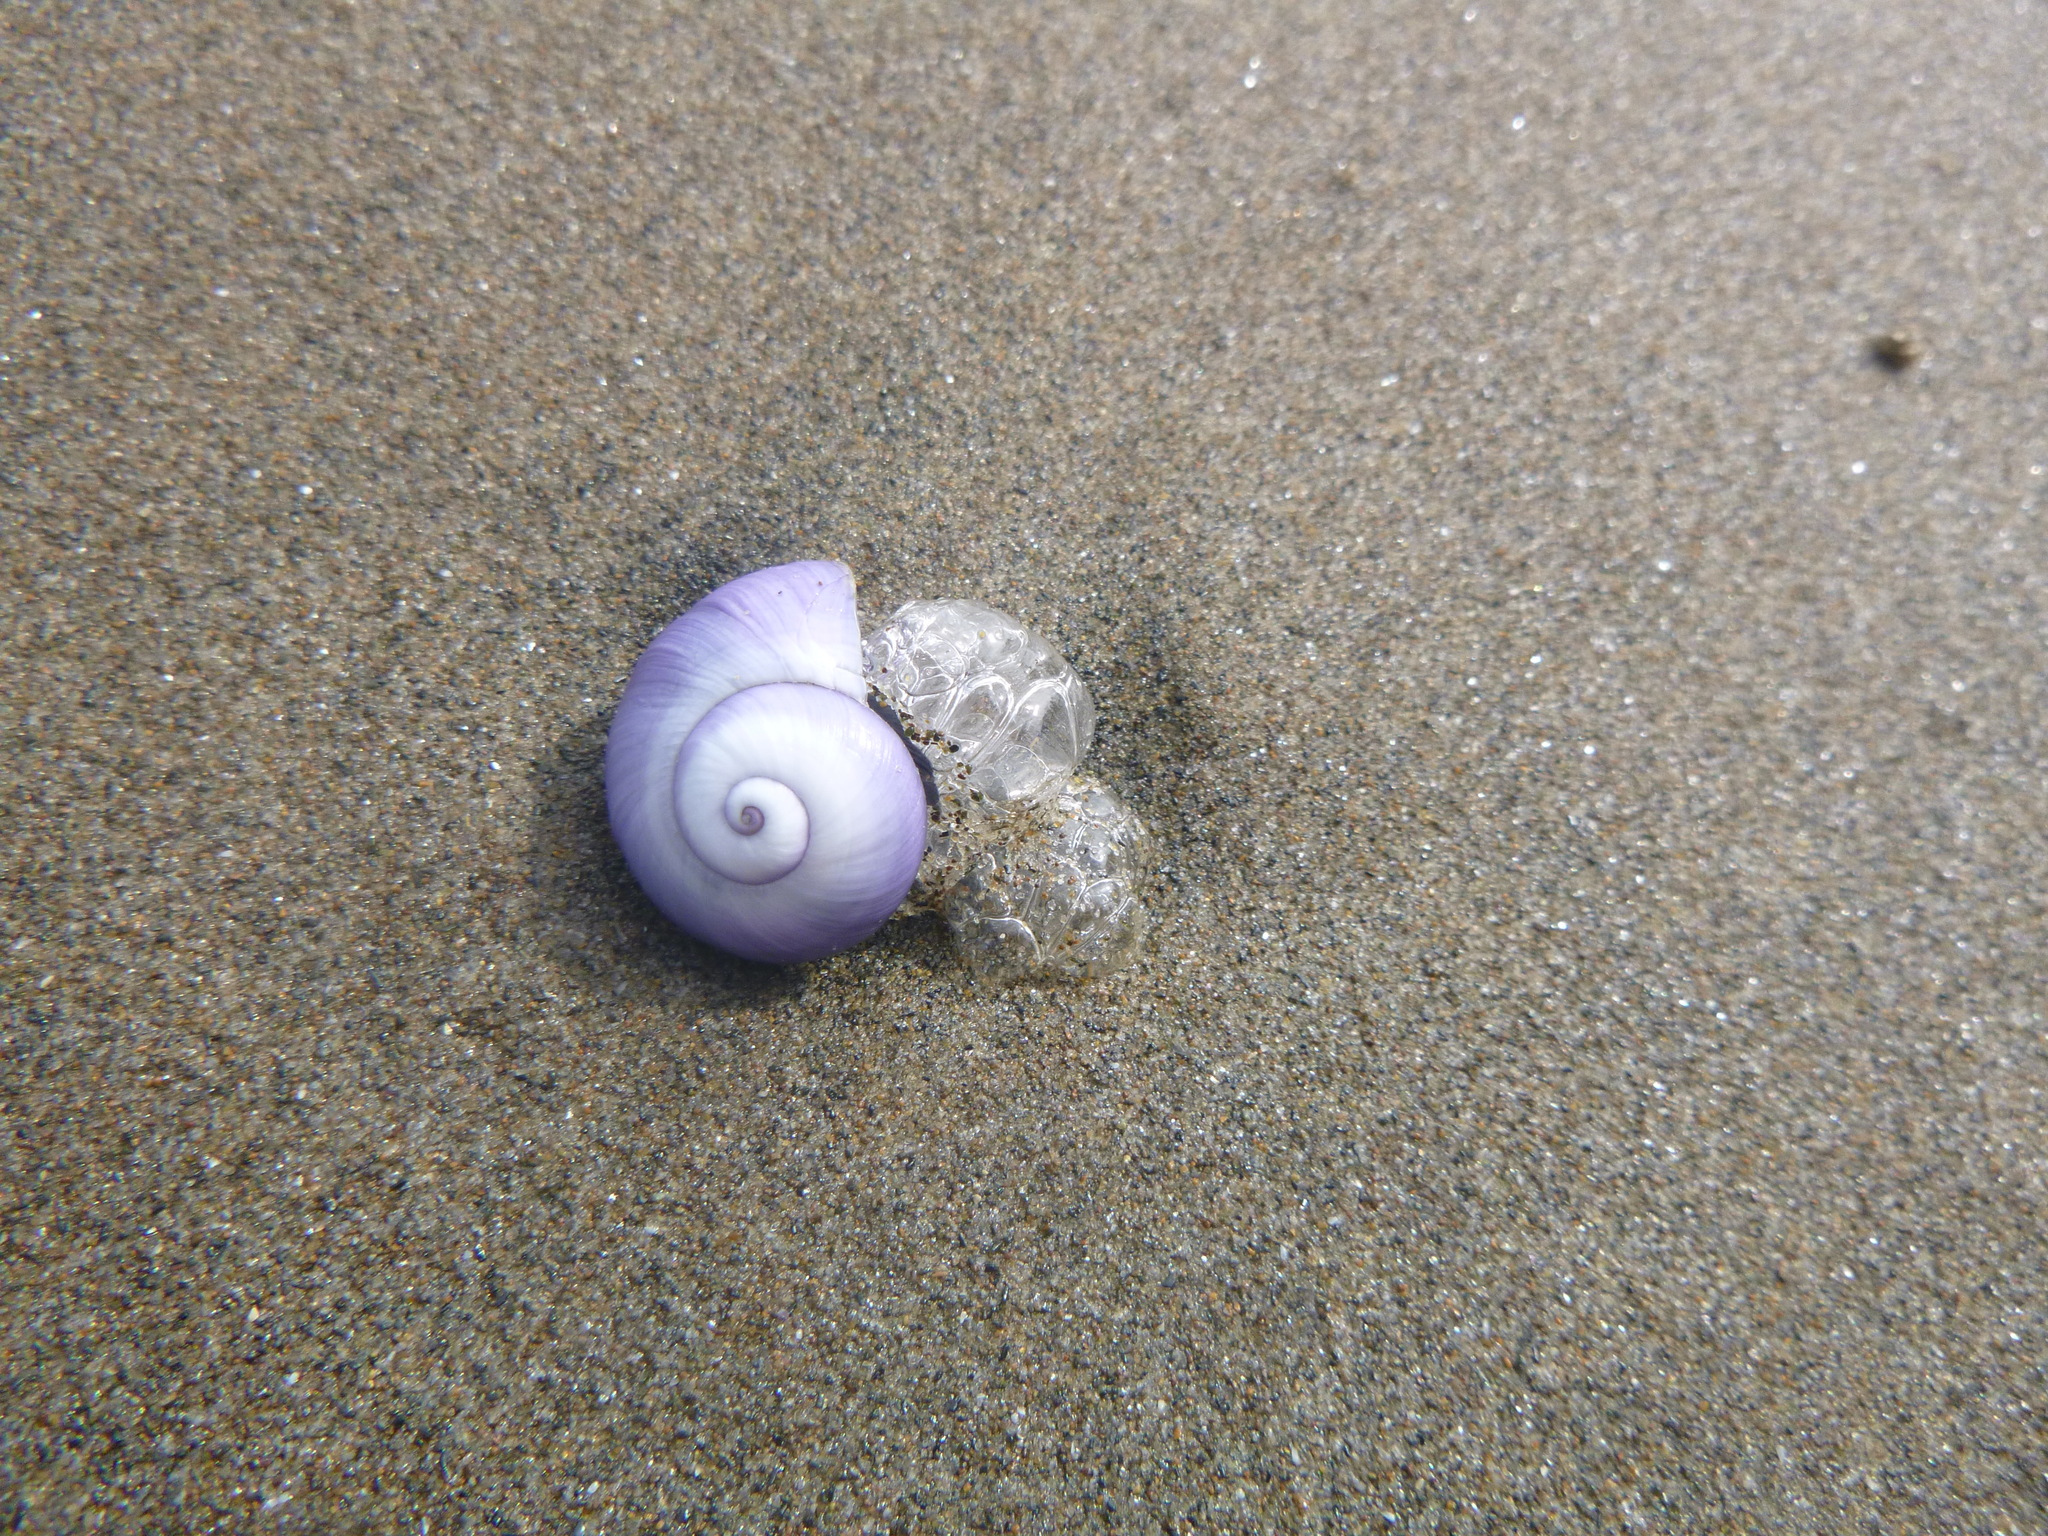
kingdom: Animalia
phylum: Mollusca
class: Gastropoda
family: Epitoniidae
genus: Janthina
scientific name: Janthina janthina
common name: Common janthina
